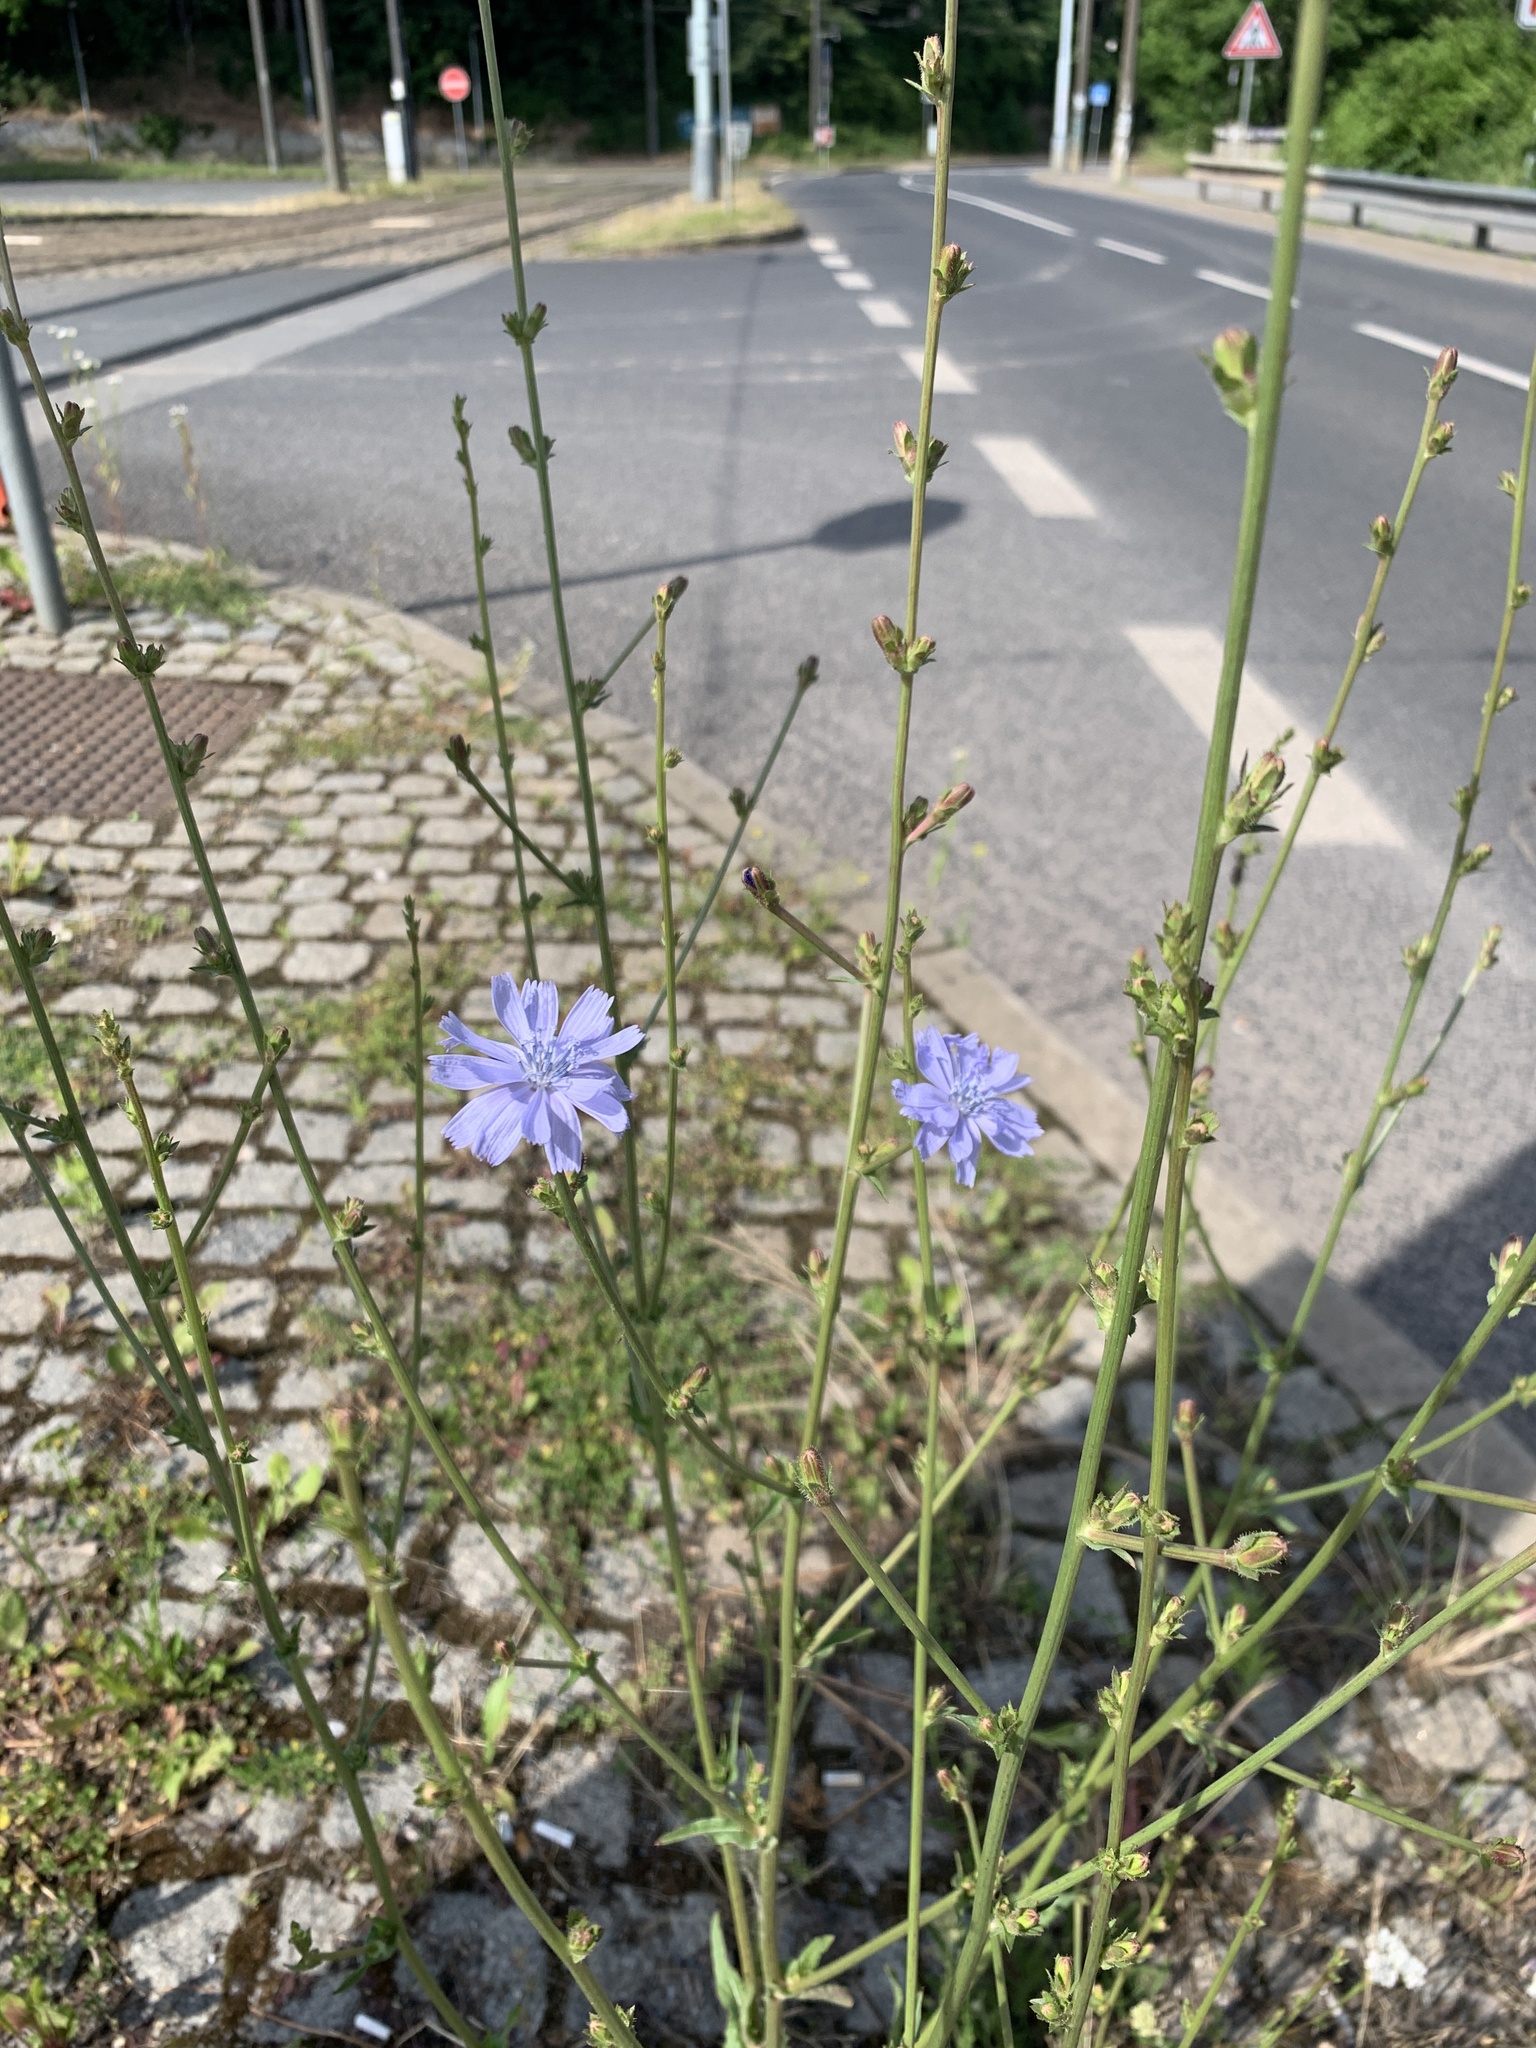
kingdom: Plantae
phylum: Tracheophyta
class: Magnoliopsida
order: Asterales
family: Asteraceae
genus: Cichorium
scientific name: Cichorium intybus
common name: Chicory
